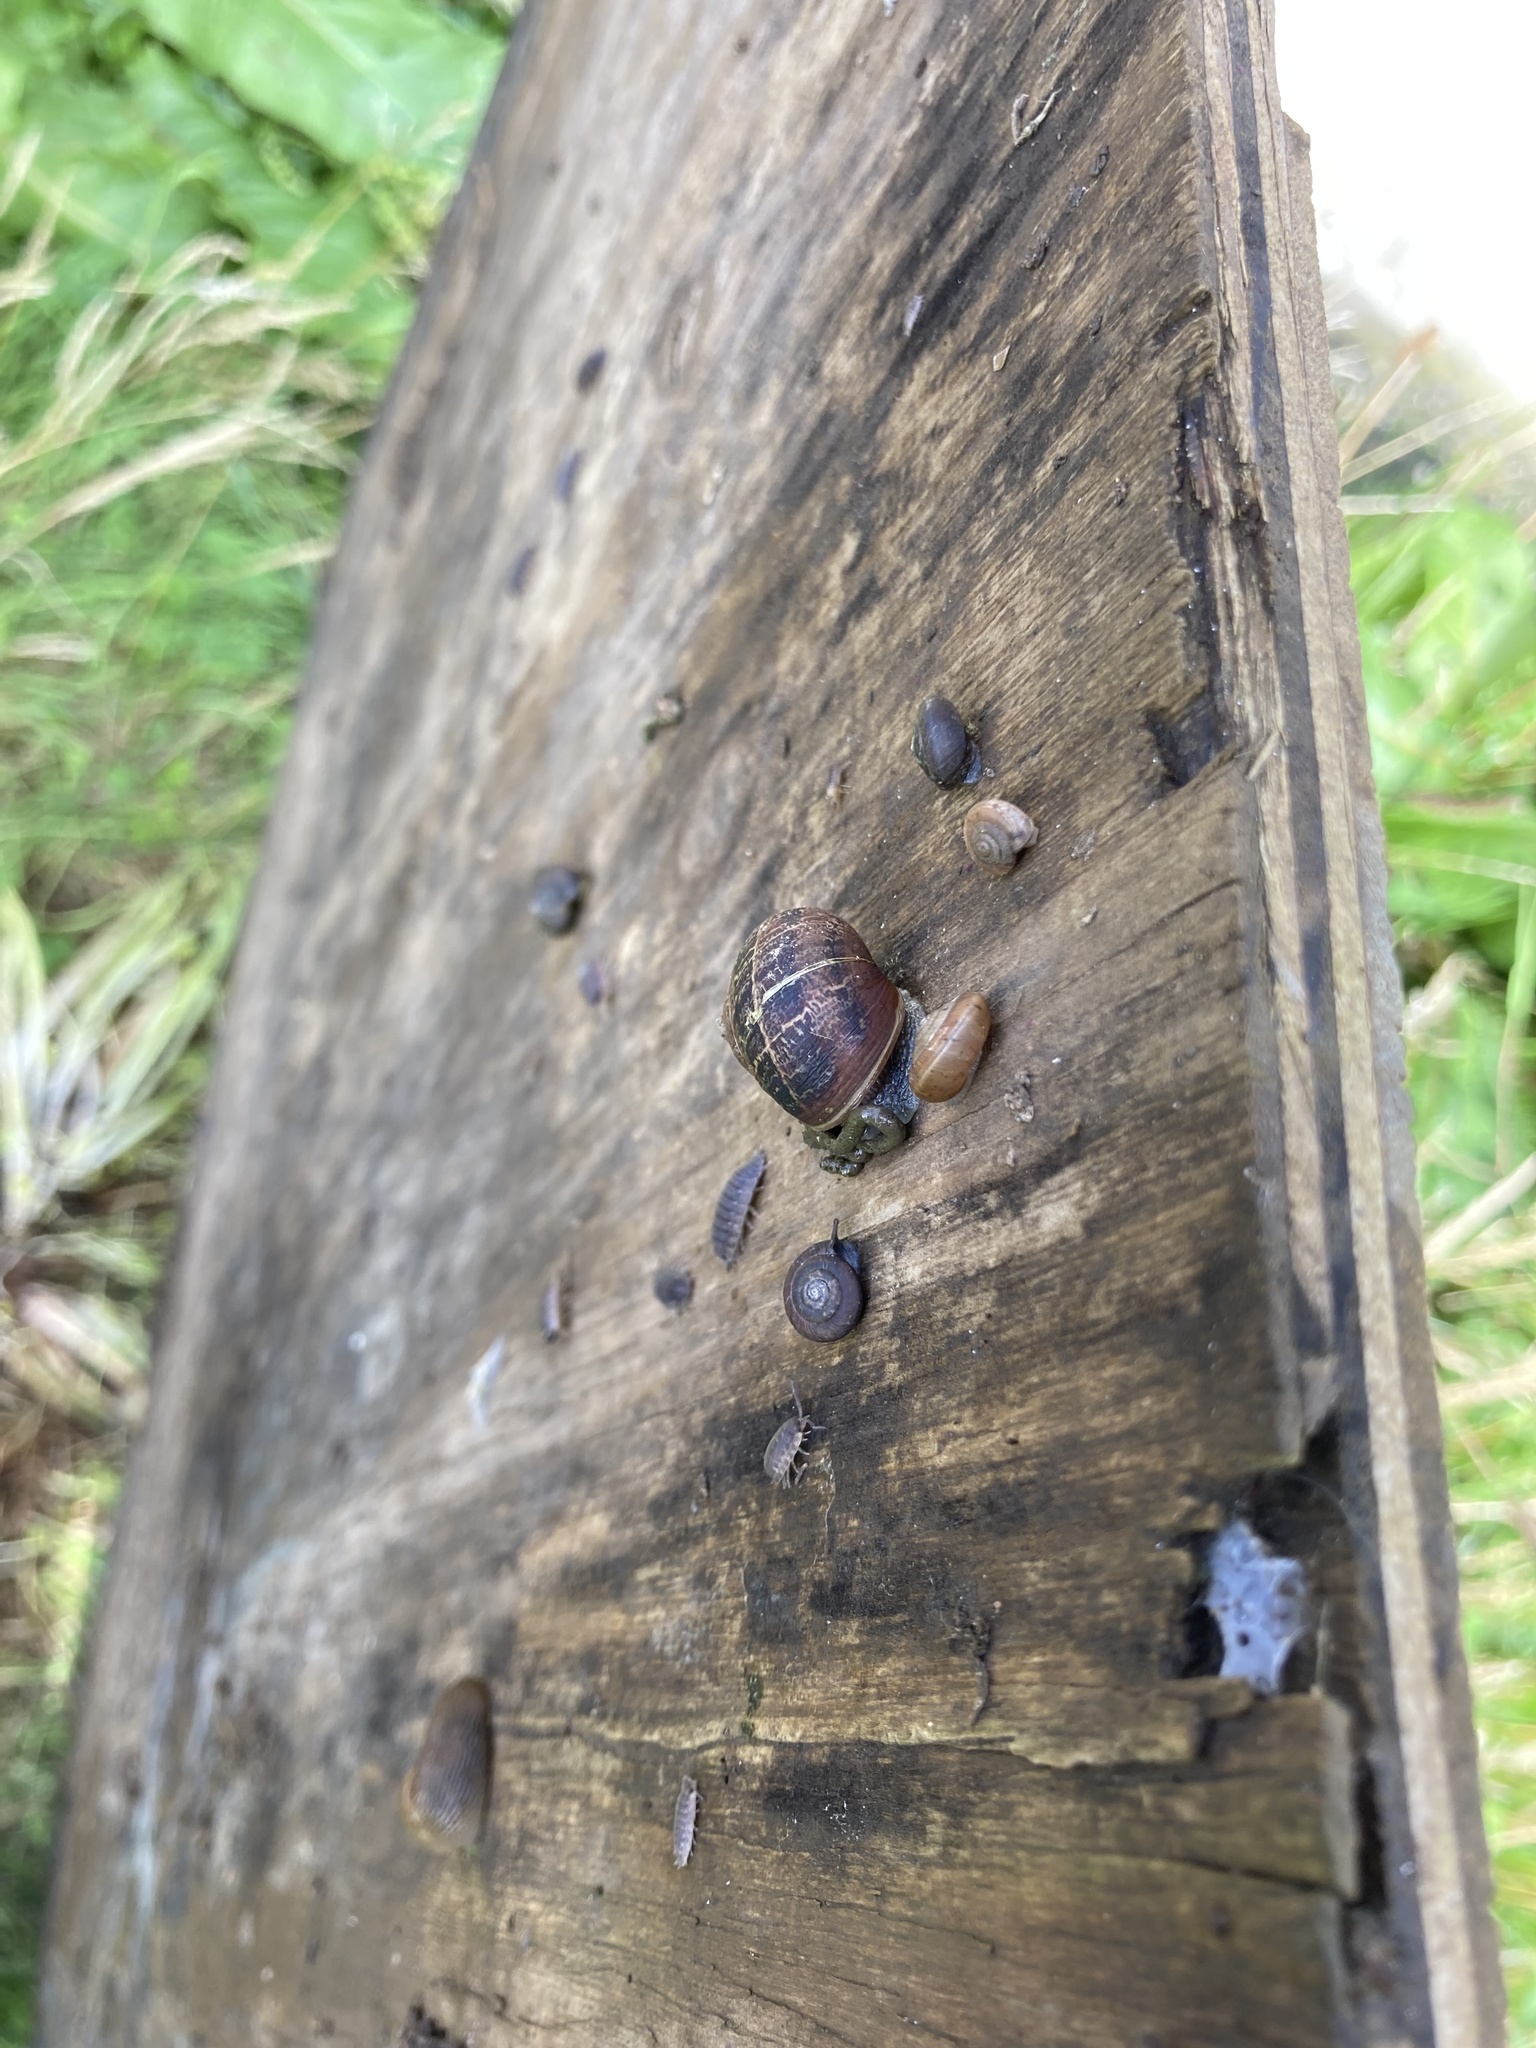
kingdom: Animalia
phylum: Mollusca
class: Gastropoda
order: Stylommatophora
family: Helicidae
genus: Cornu
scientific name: Cornu aspersum
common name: Brown garden snail
